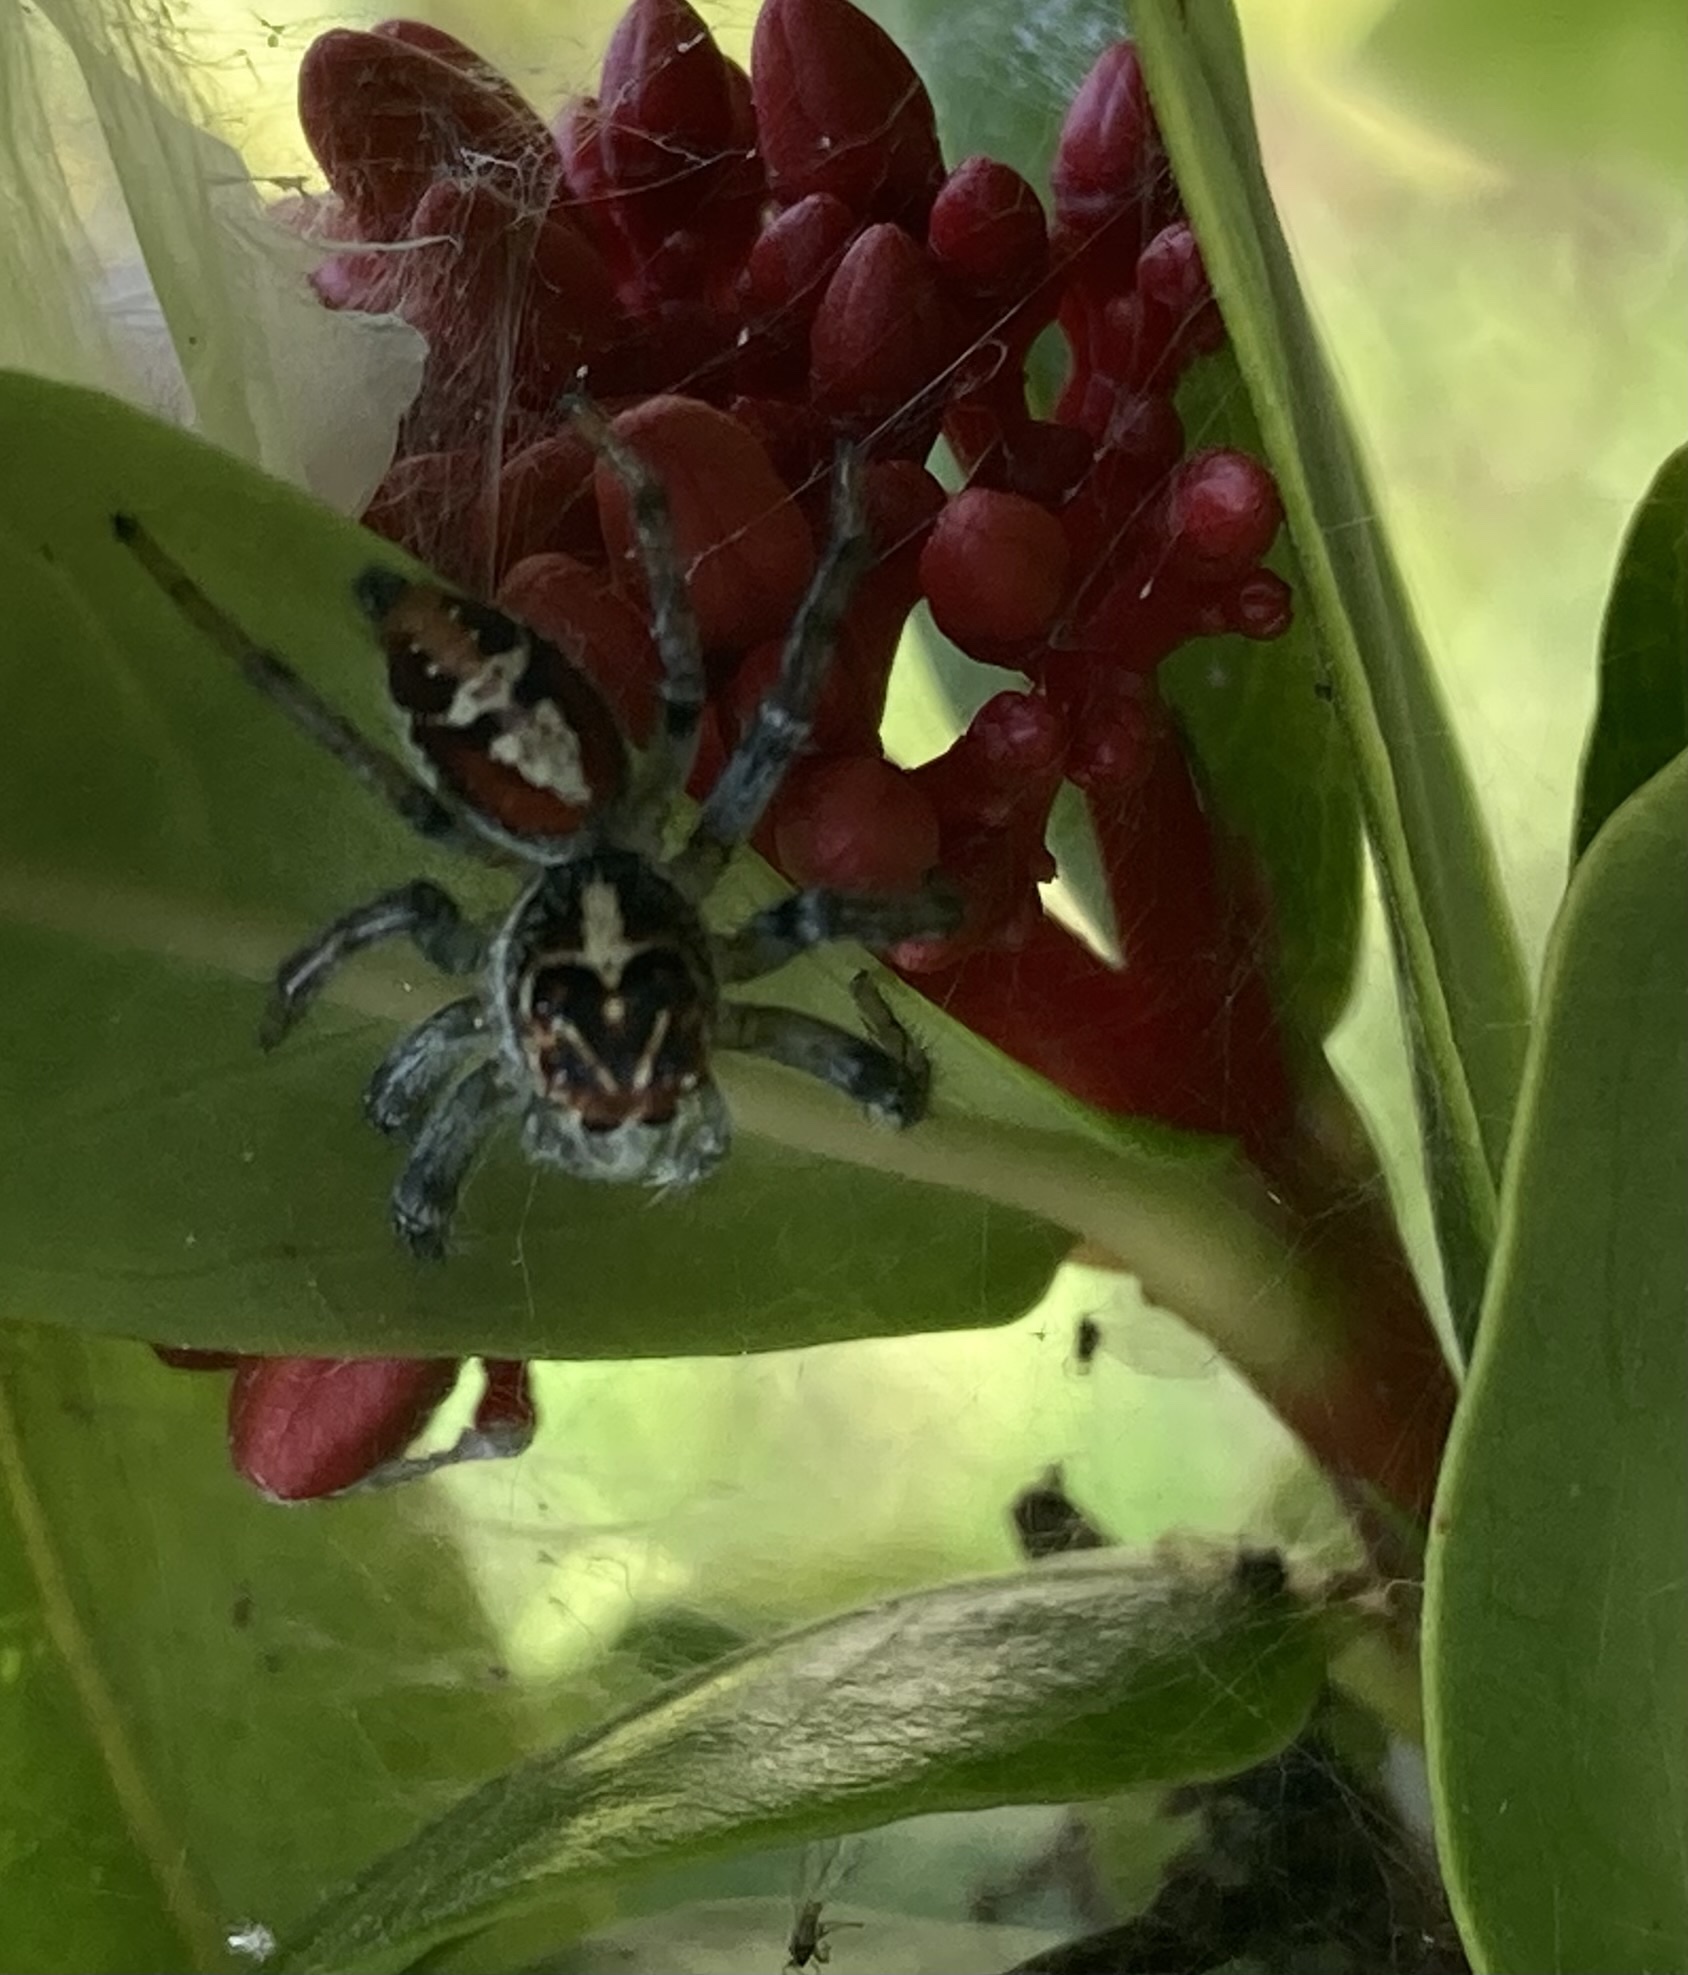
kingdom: Animalia
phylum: Arthropoda
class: Arachnida
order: Araneae
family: Salticidae
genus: Frigga
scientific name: Frigga quintensis
